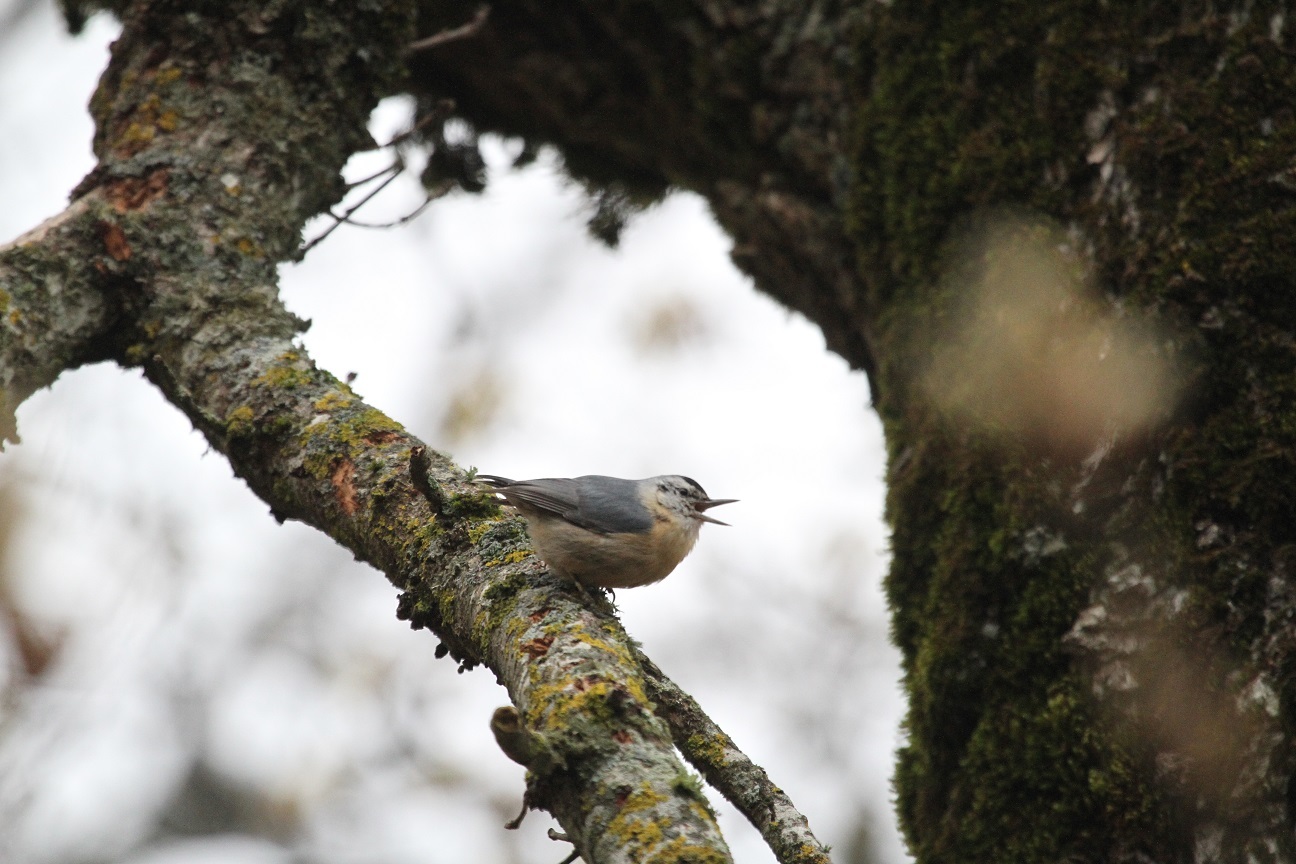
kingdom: Animalia
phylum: Chordata
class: Aves
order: Passeriformes
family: Sittidae
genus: Sitta
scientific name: Sitta ledanti
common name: Algerian nuthatch
